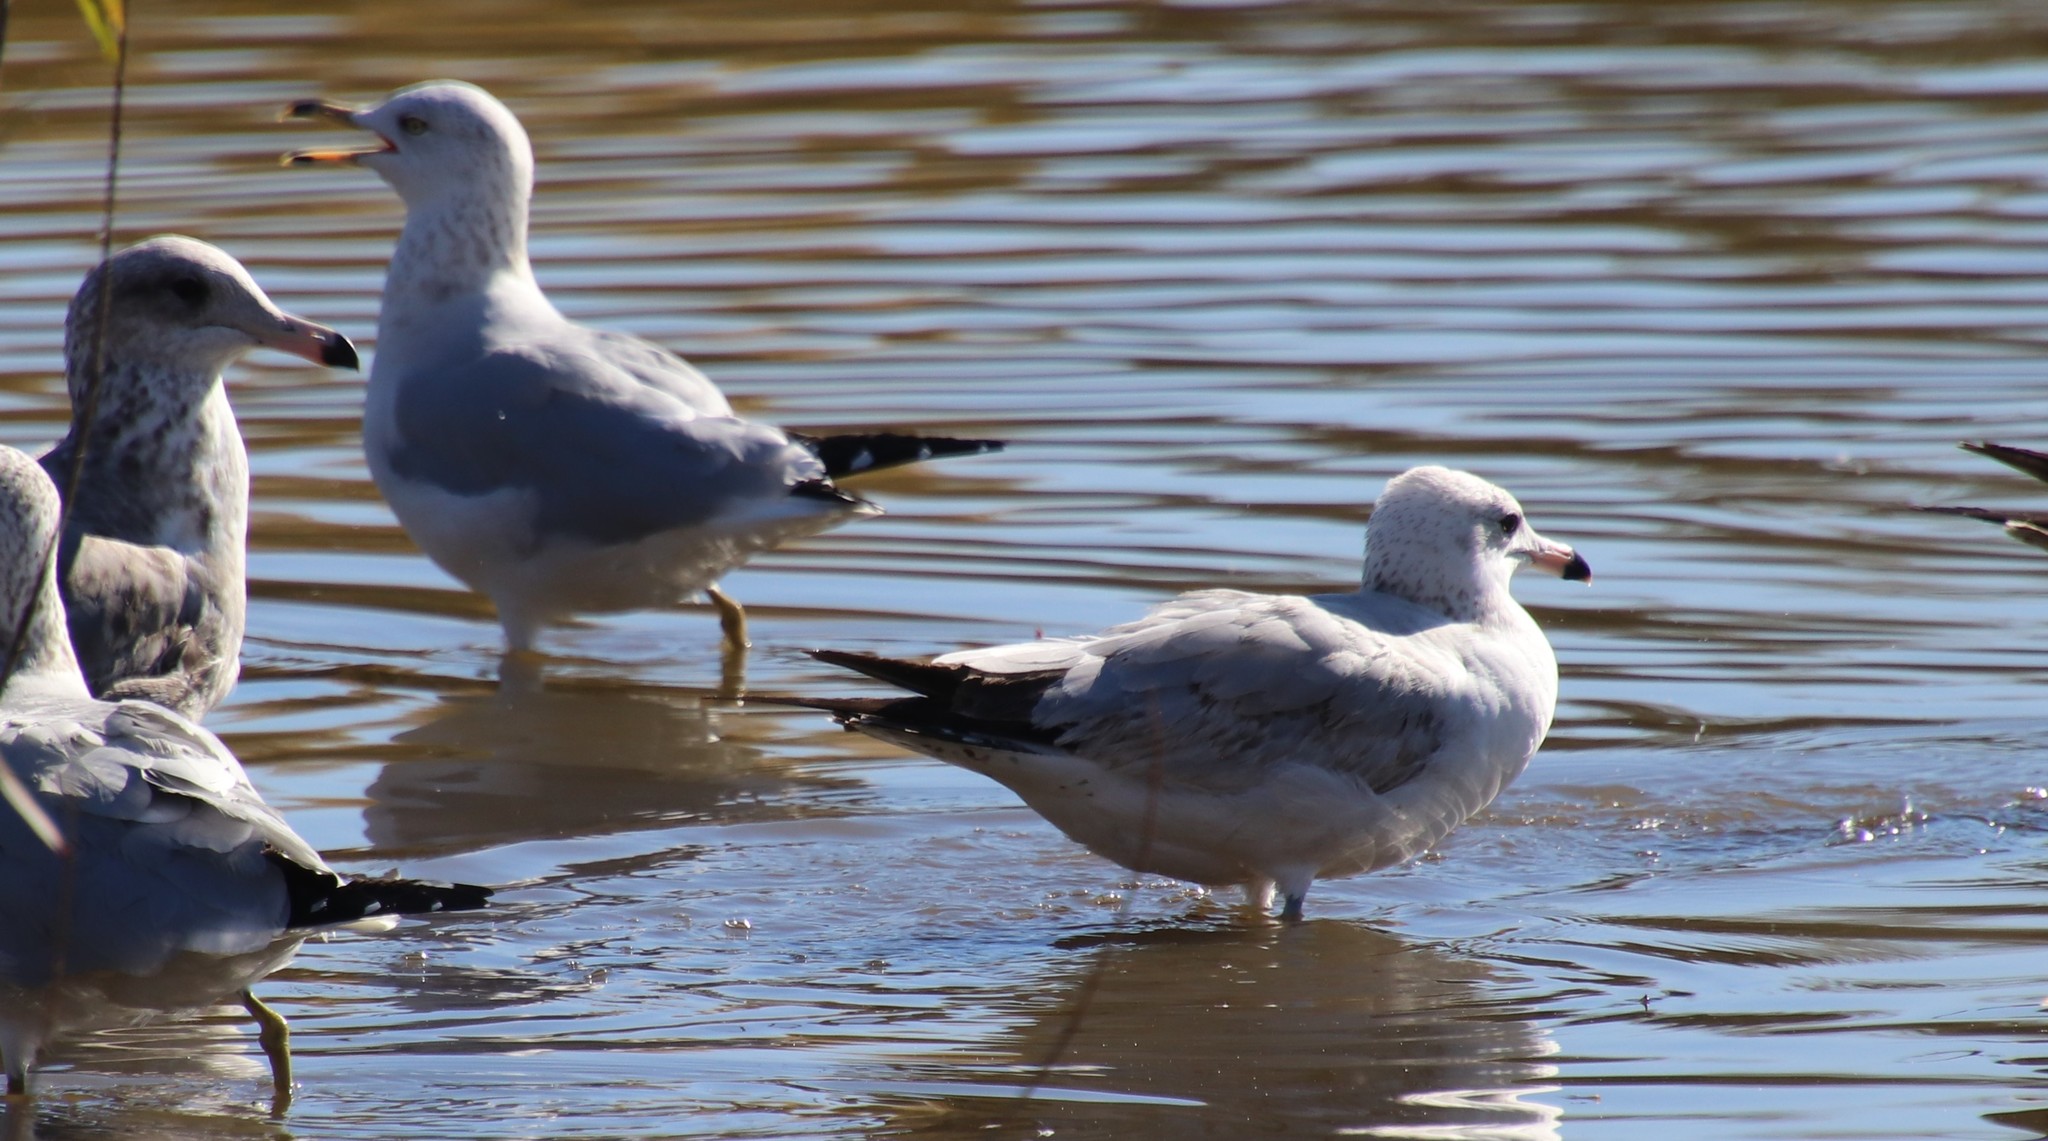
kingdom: Animalia
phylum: Chordata
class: Aves
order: Charadriiformes
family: Laridae
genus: Larus
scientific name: Larus delawarensis
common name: Ring-billed gull
